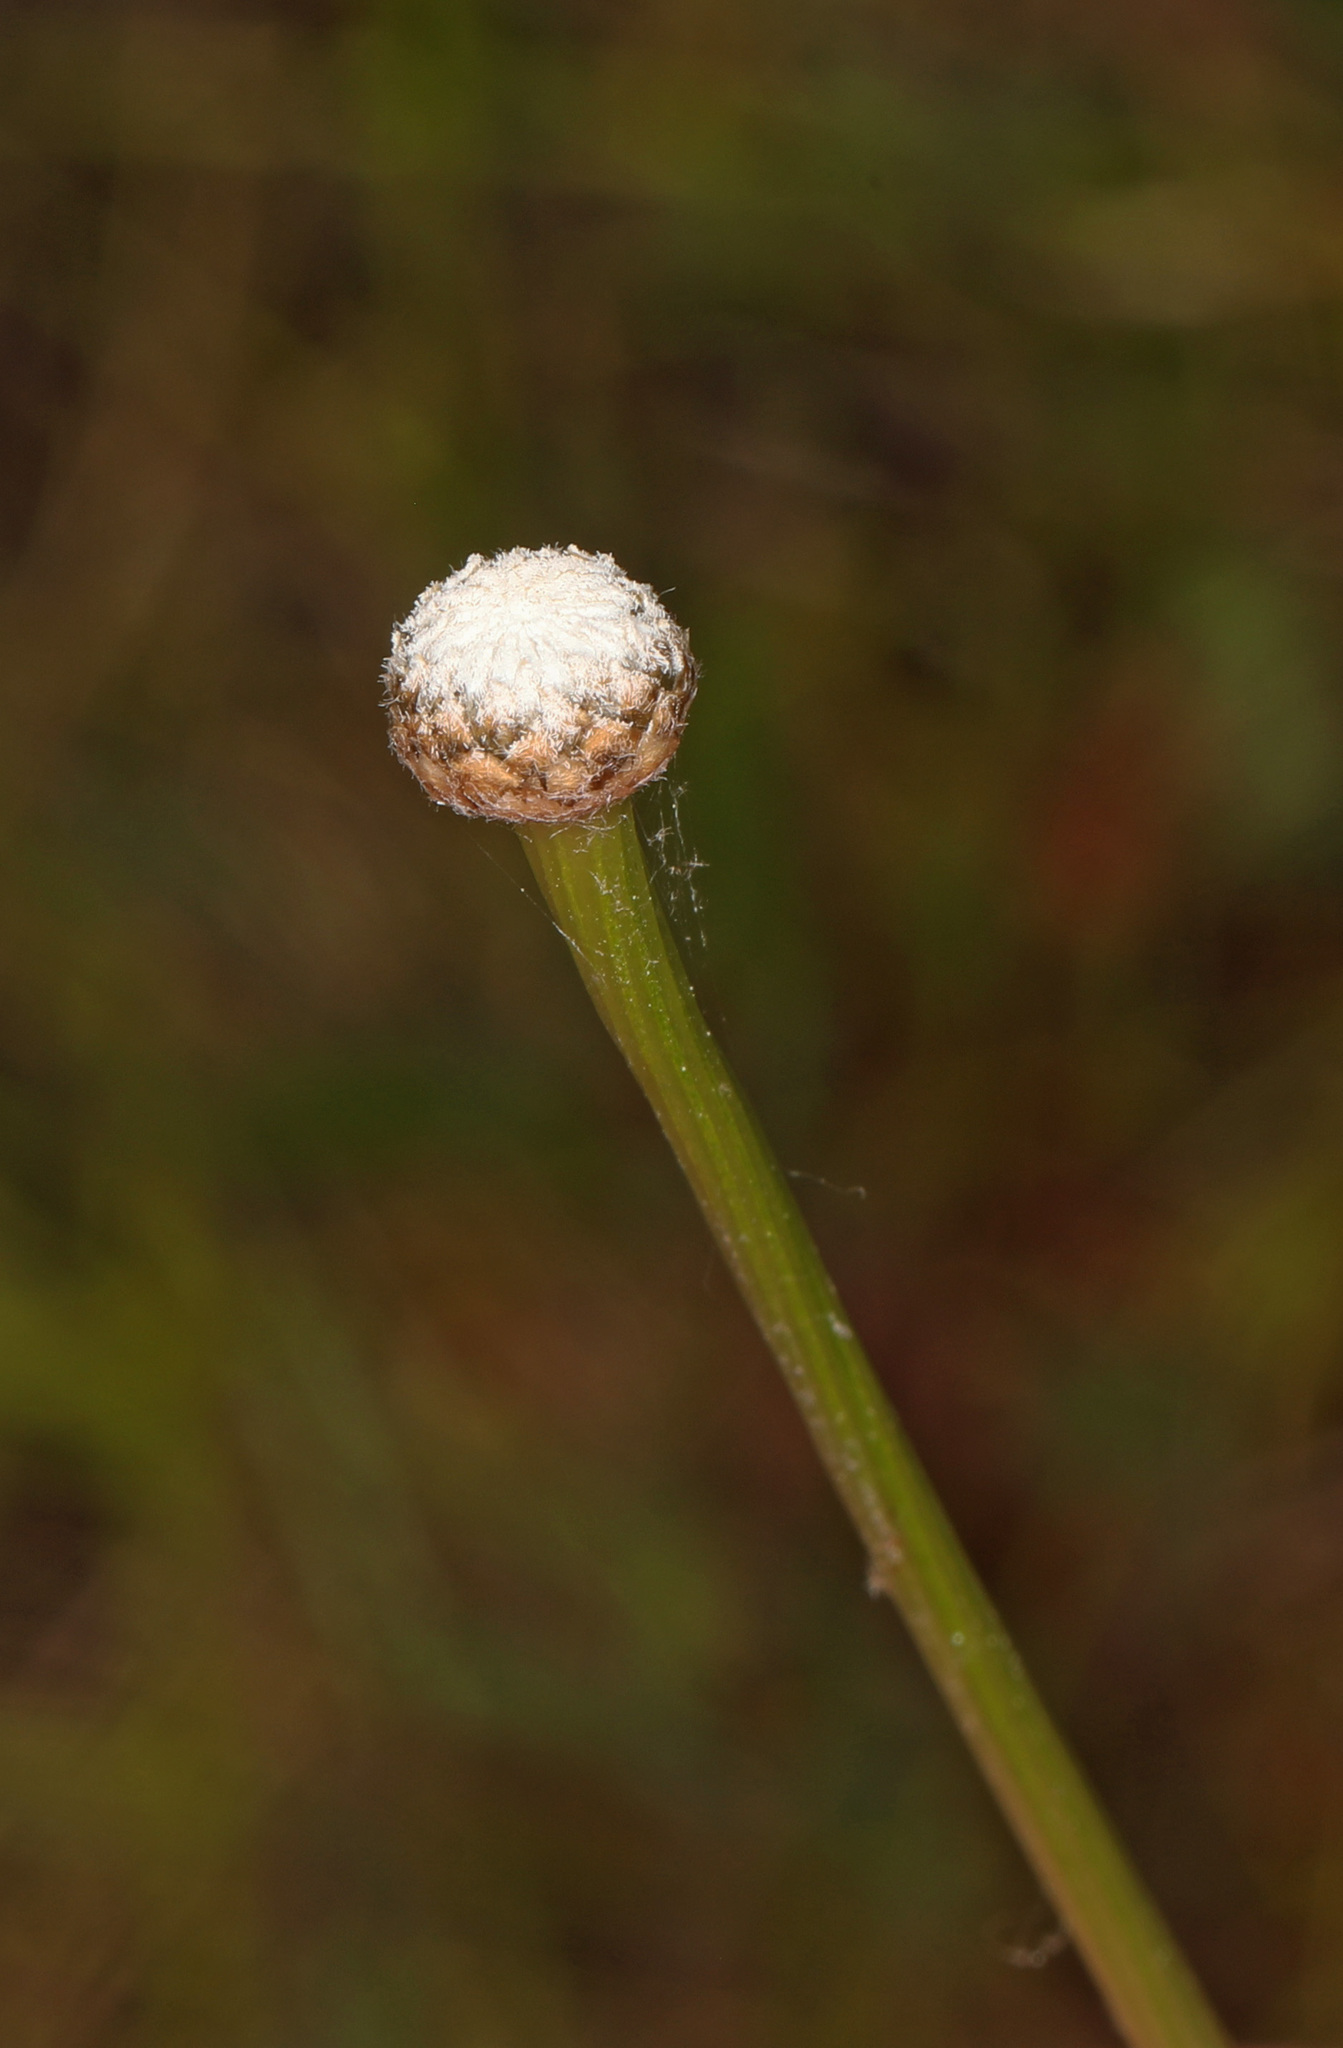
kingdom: Plantae
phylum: Tracheophyta
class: Liliopsida
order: Poales
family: Eriocaulaceae
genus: Eriocaulon
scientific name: Eriocaulon decangulare
